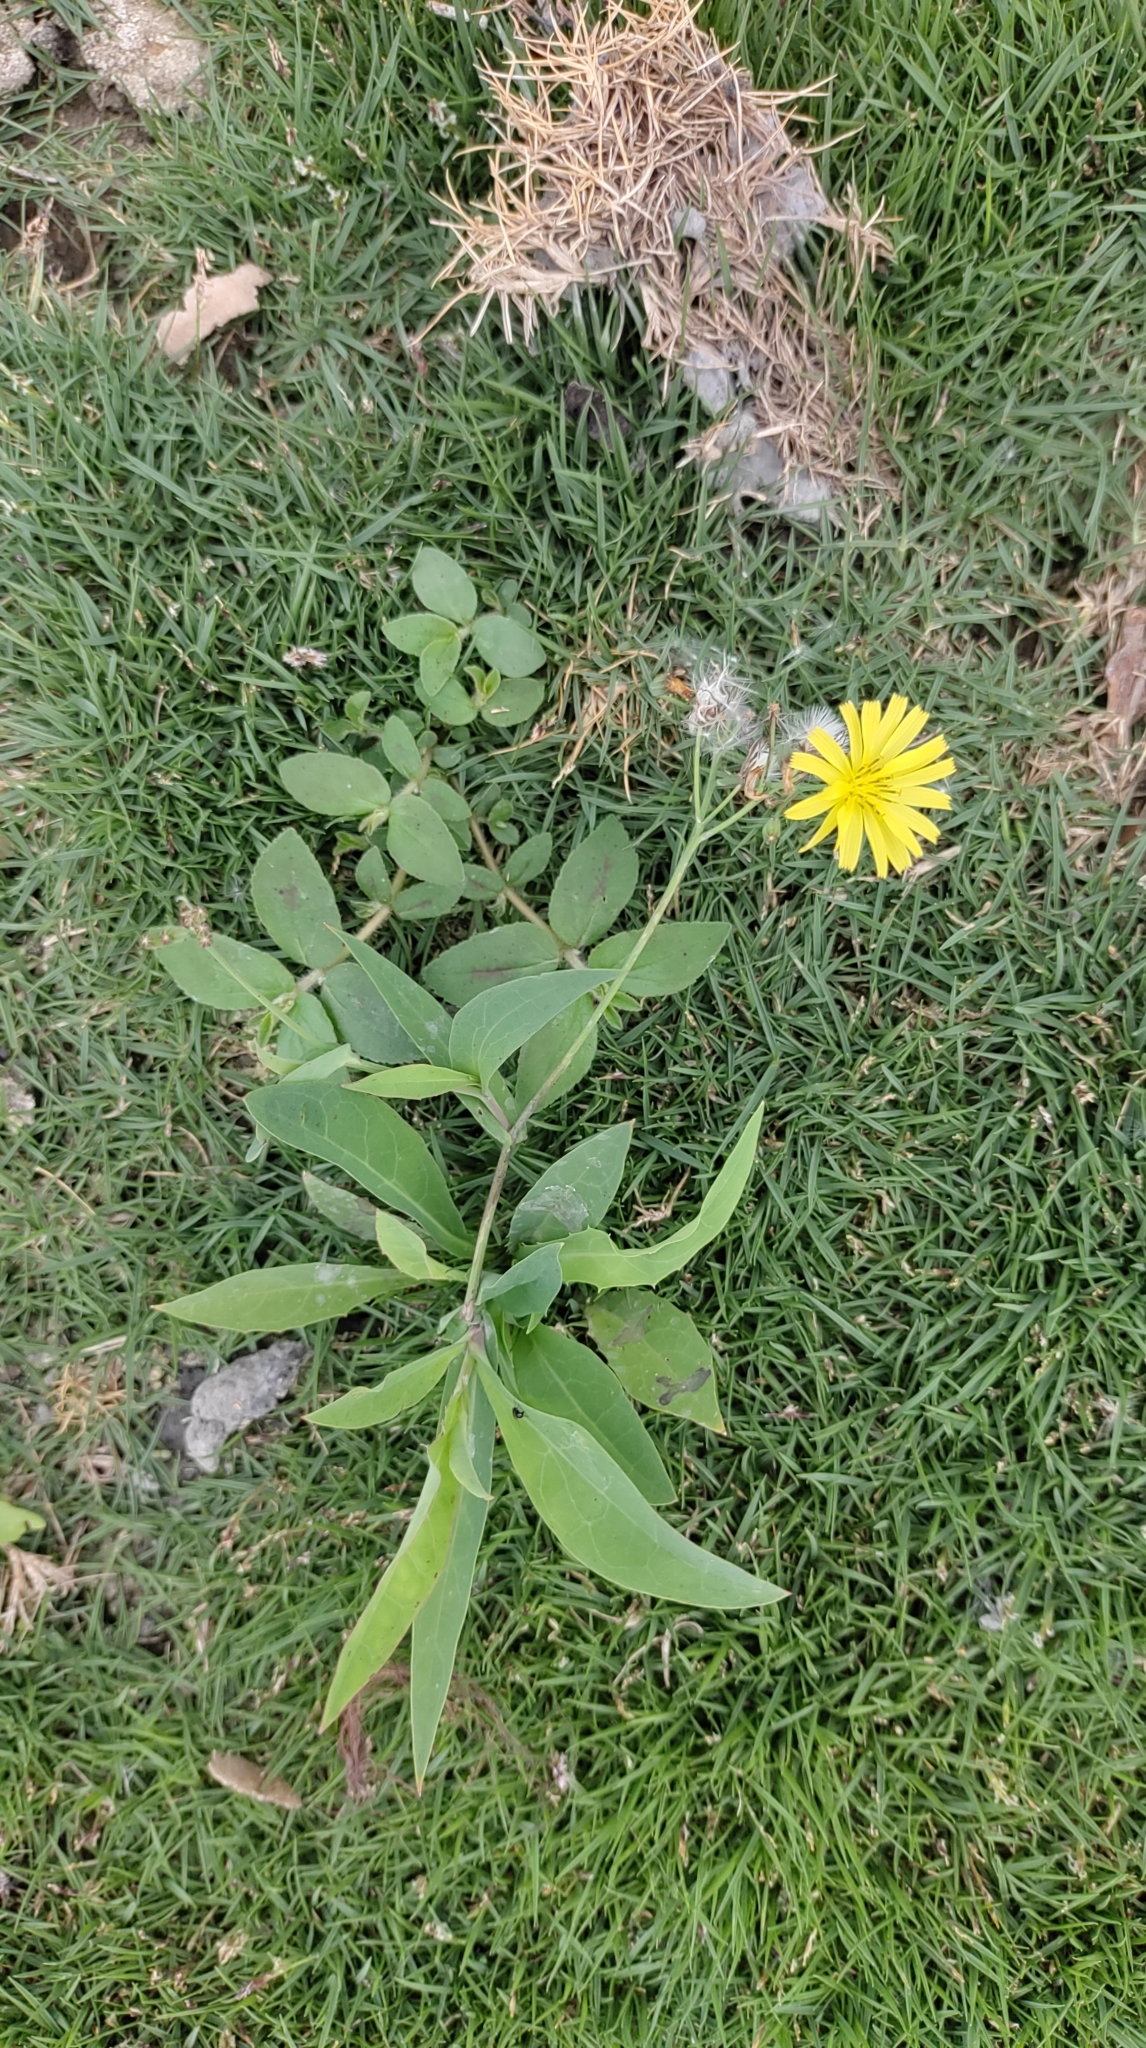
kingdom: Plantae
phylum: Tracheophyta
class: Magnoliopsida
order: Asterales
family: Asteraceae
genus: Ixeris
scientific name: Ixeris chinensis
